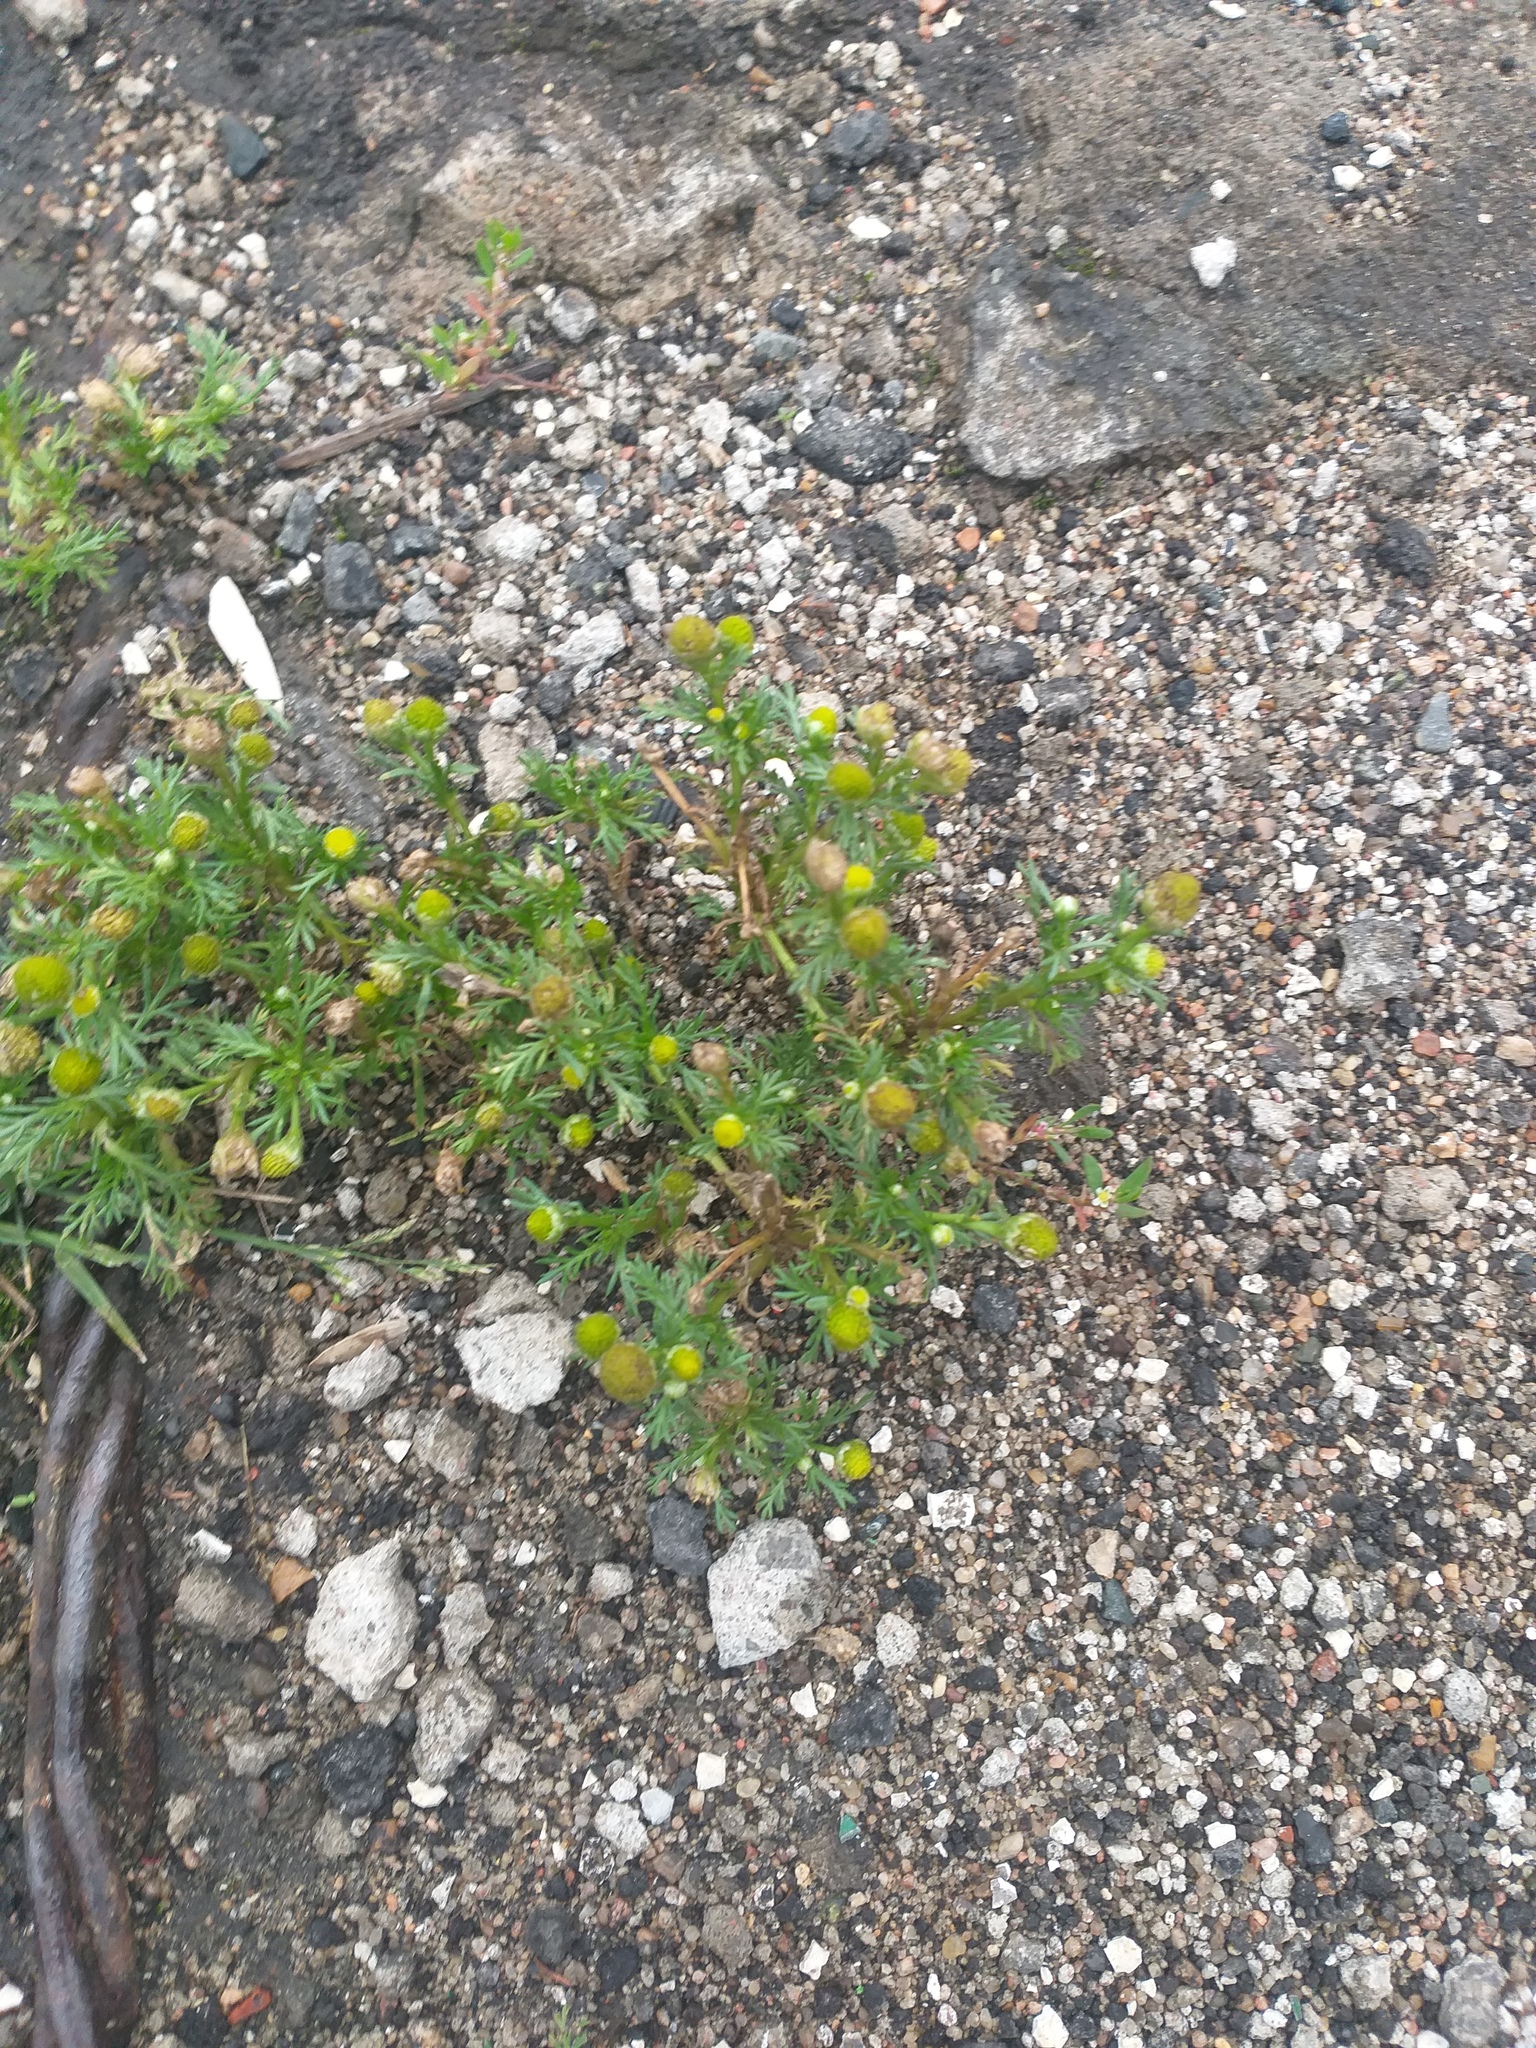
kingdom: Plantae
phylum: Tracheophyta
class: Magnoliopsida
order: Asterales
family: Asteraceae
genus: Matricaria
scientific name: Matricaria discoidea
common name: Disc mayweed
